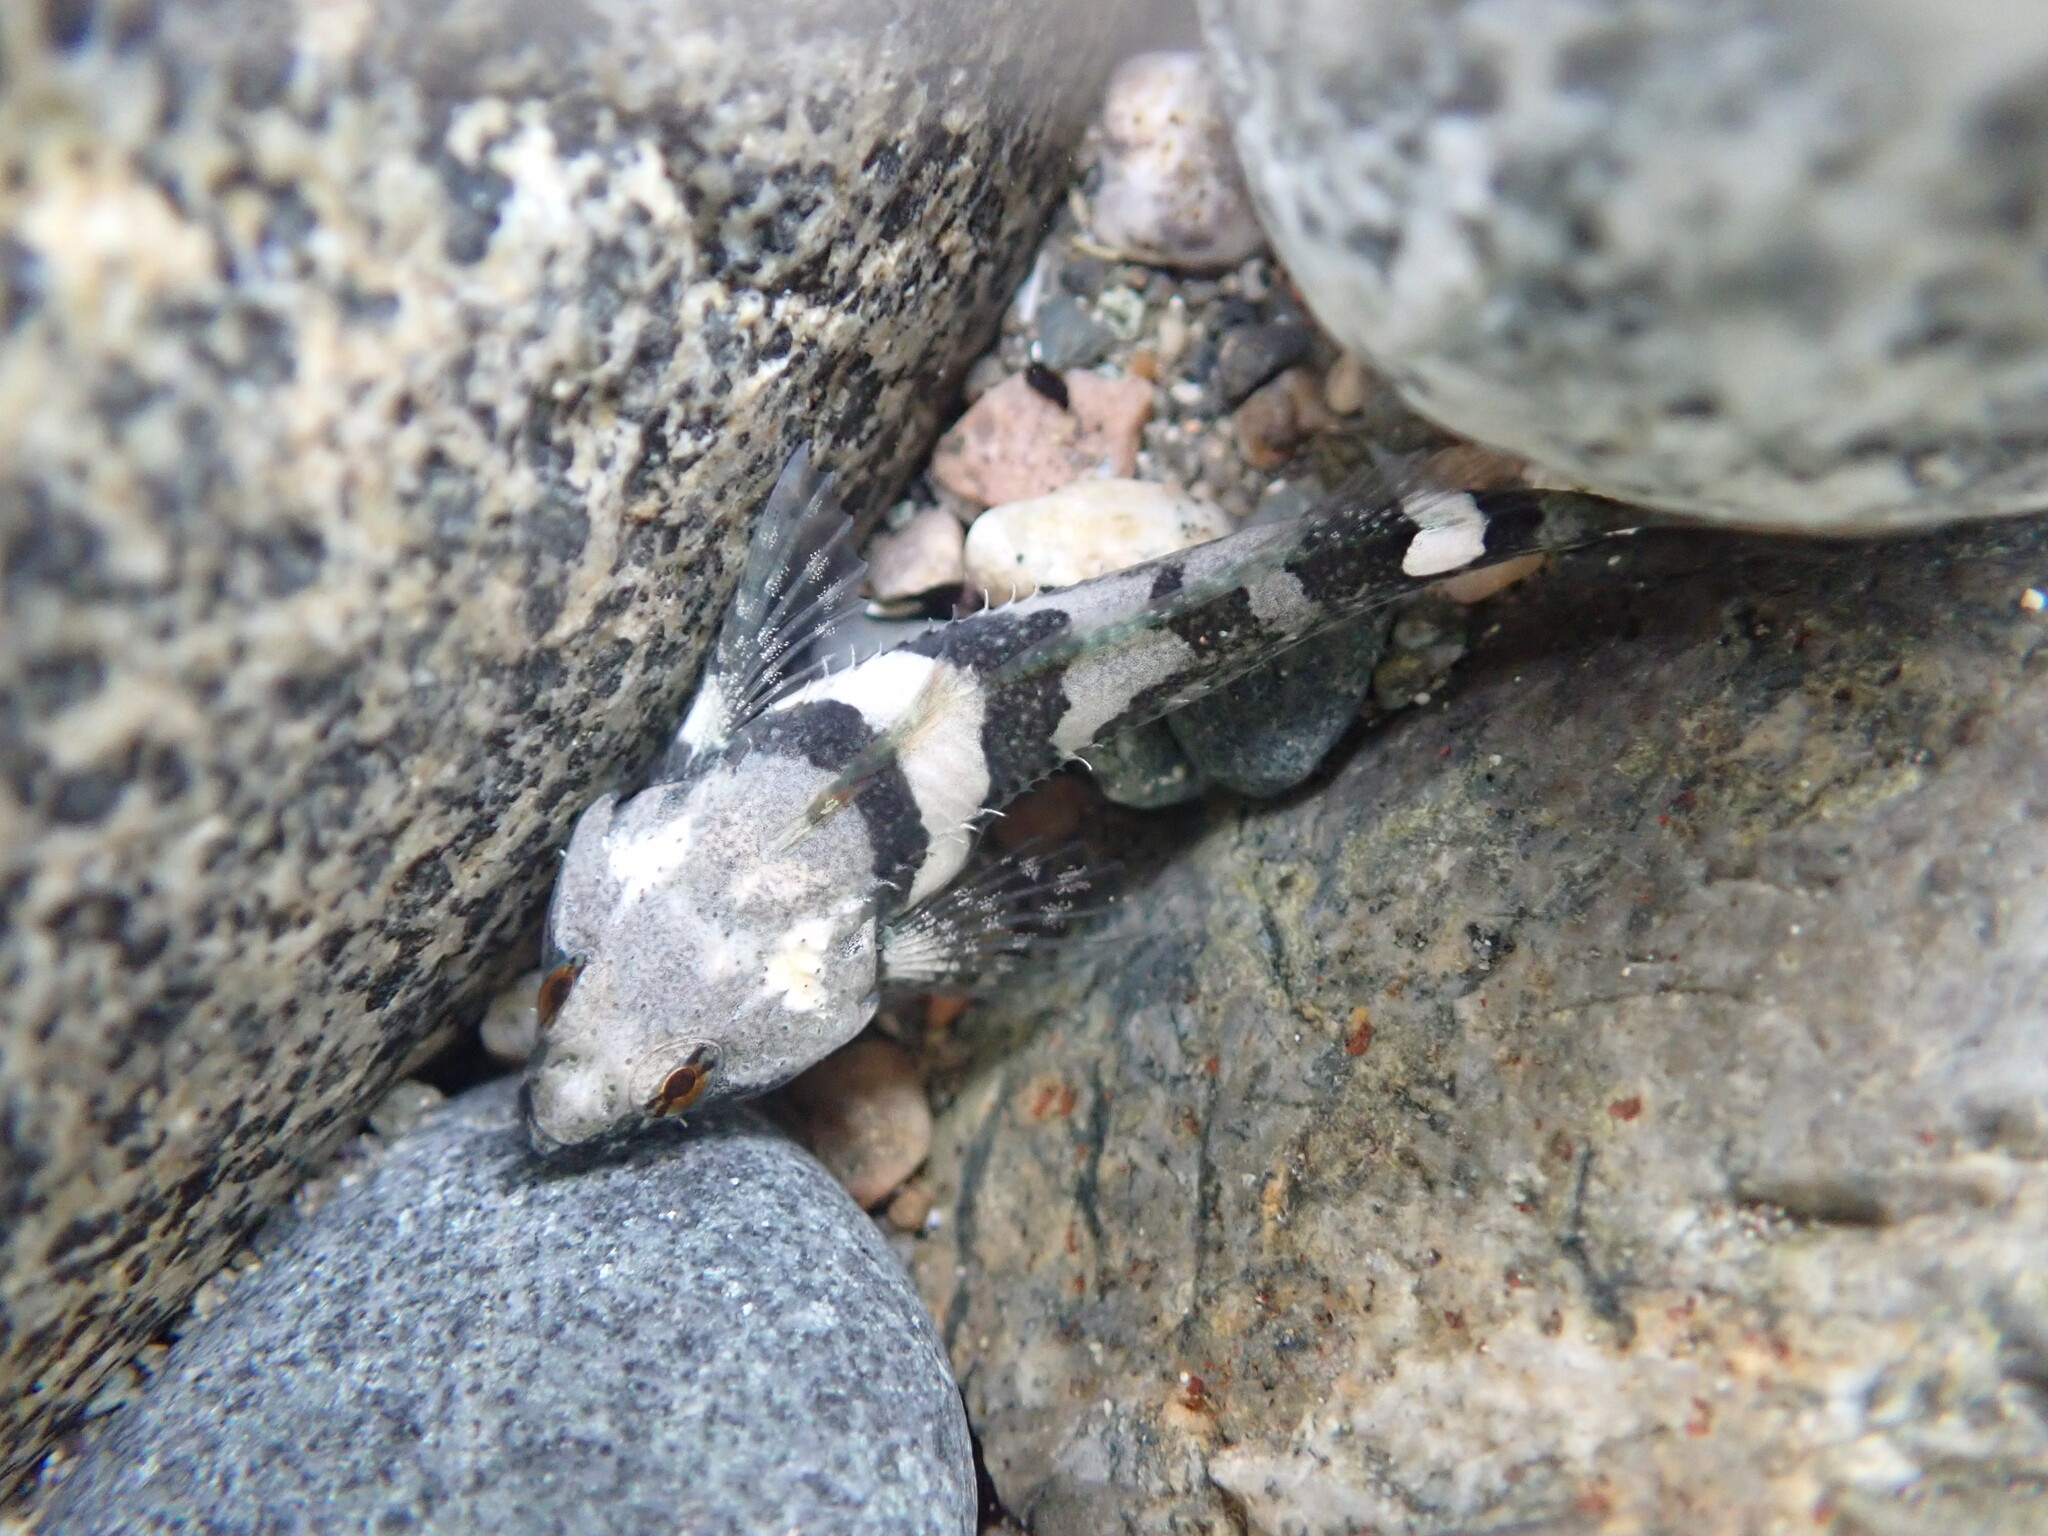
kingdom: Animalia
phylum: Chordata
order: Scorpaeniformes
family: Cottidae
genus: Oligocottus
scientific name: Oligocottus maculosus
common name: Tidepool sculpin
